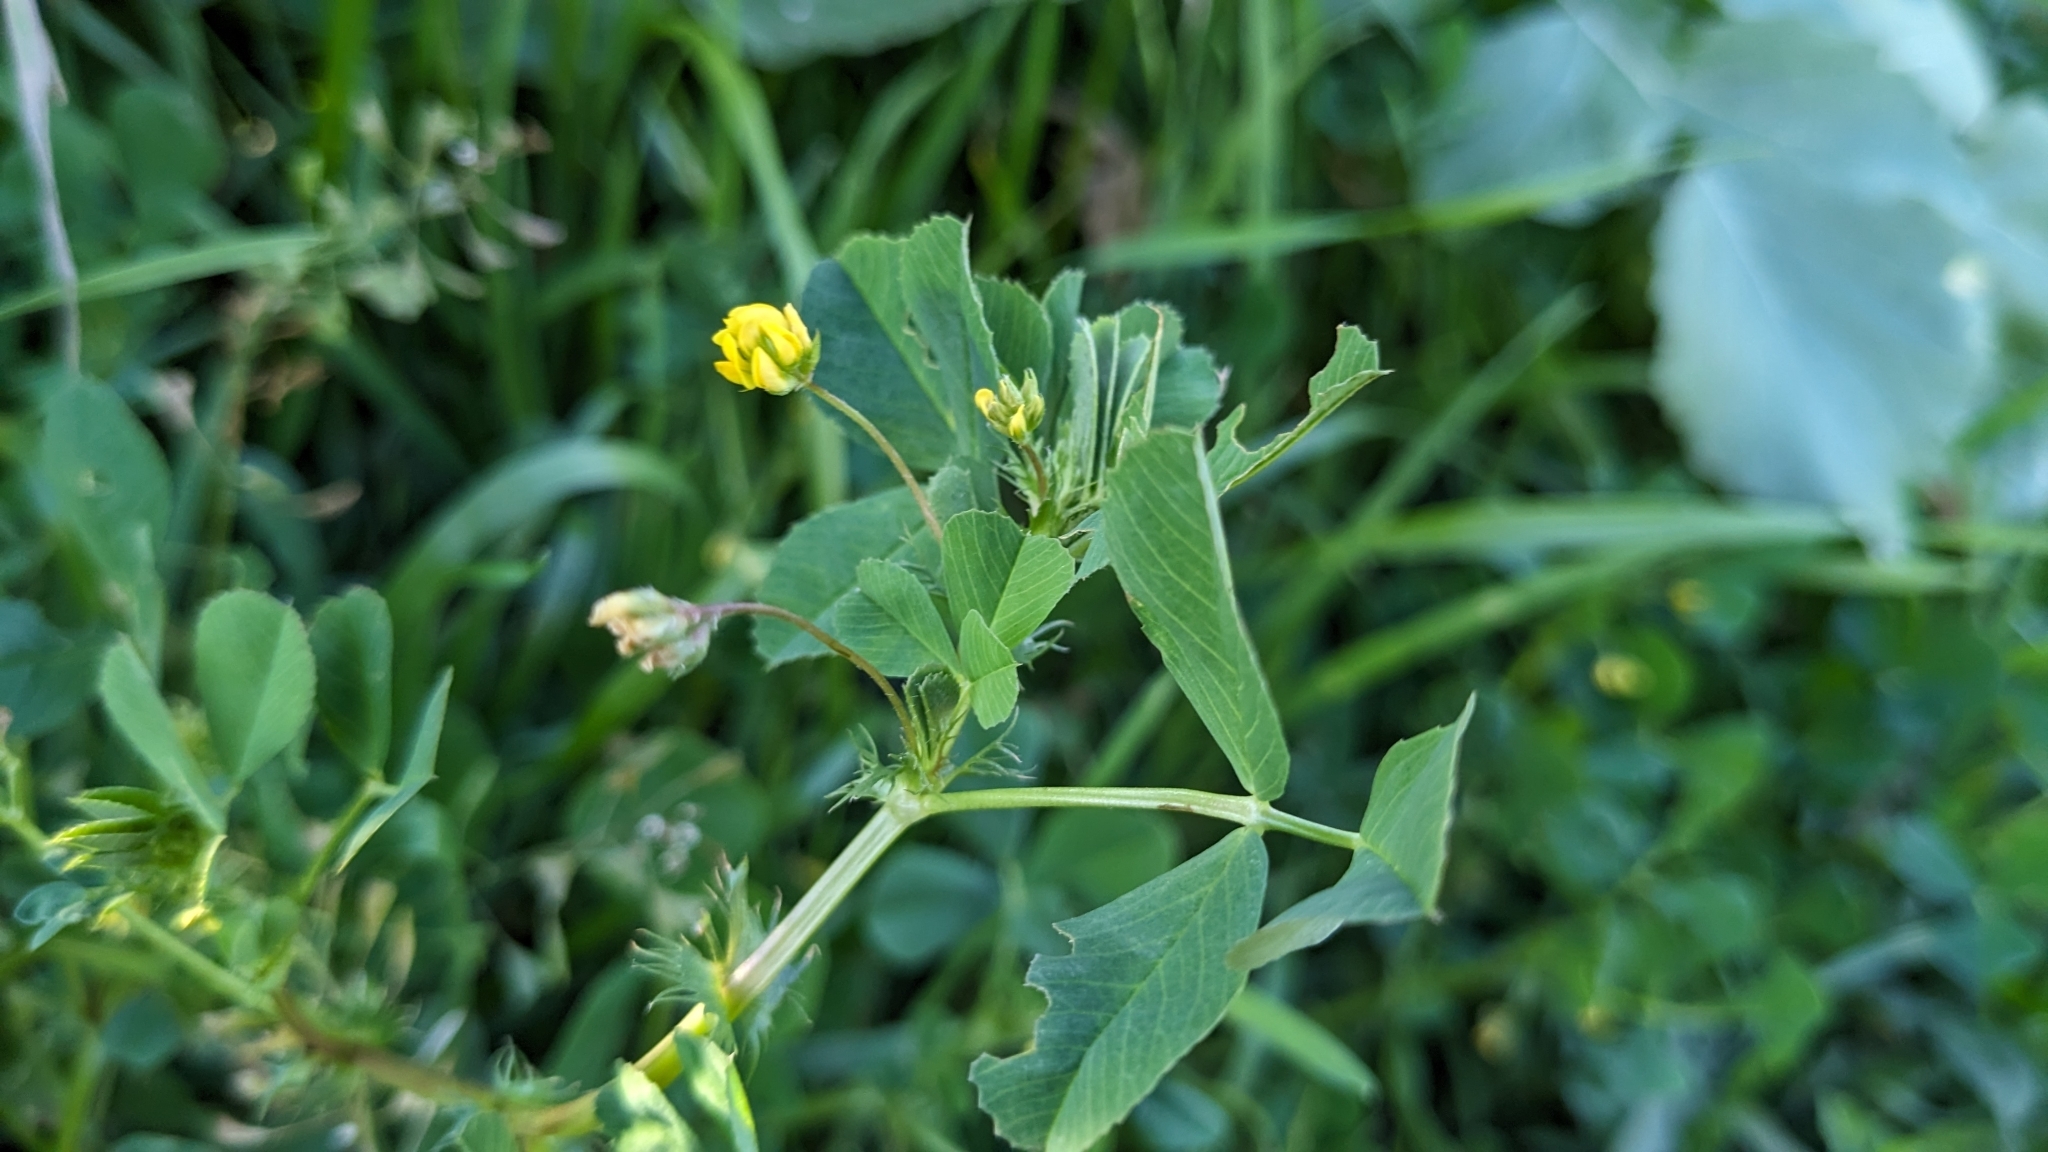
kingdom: Plantae
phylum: Tracheophyta
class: Magnoliopsida
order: Fabales
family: Fabaceae
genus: Medicago
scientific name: Medicago polymorpha
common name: Burclover
